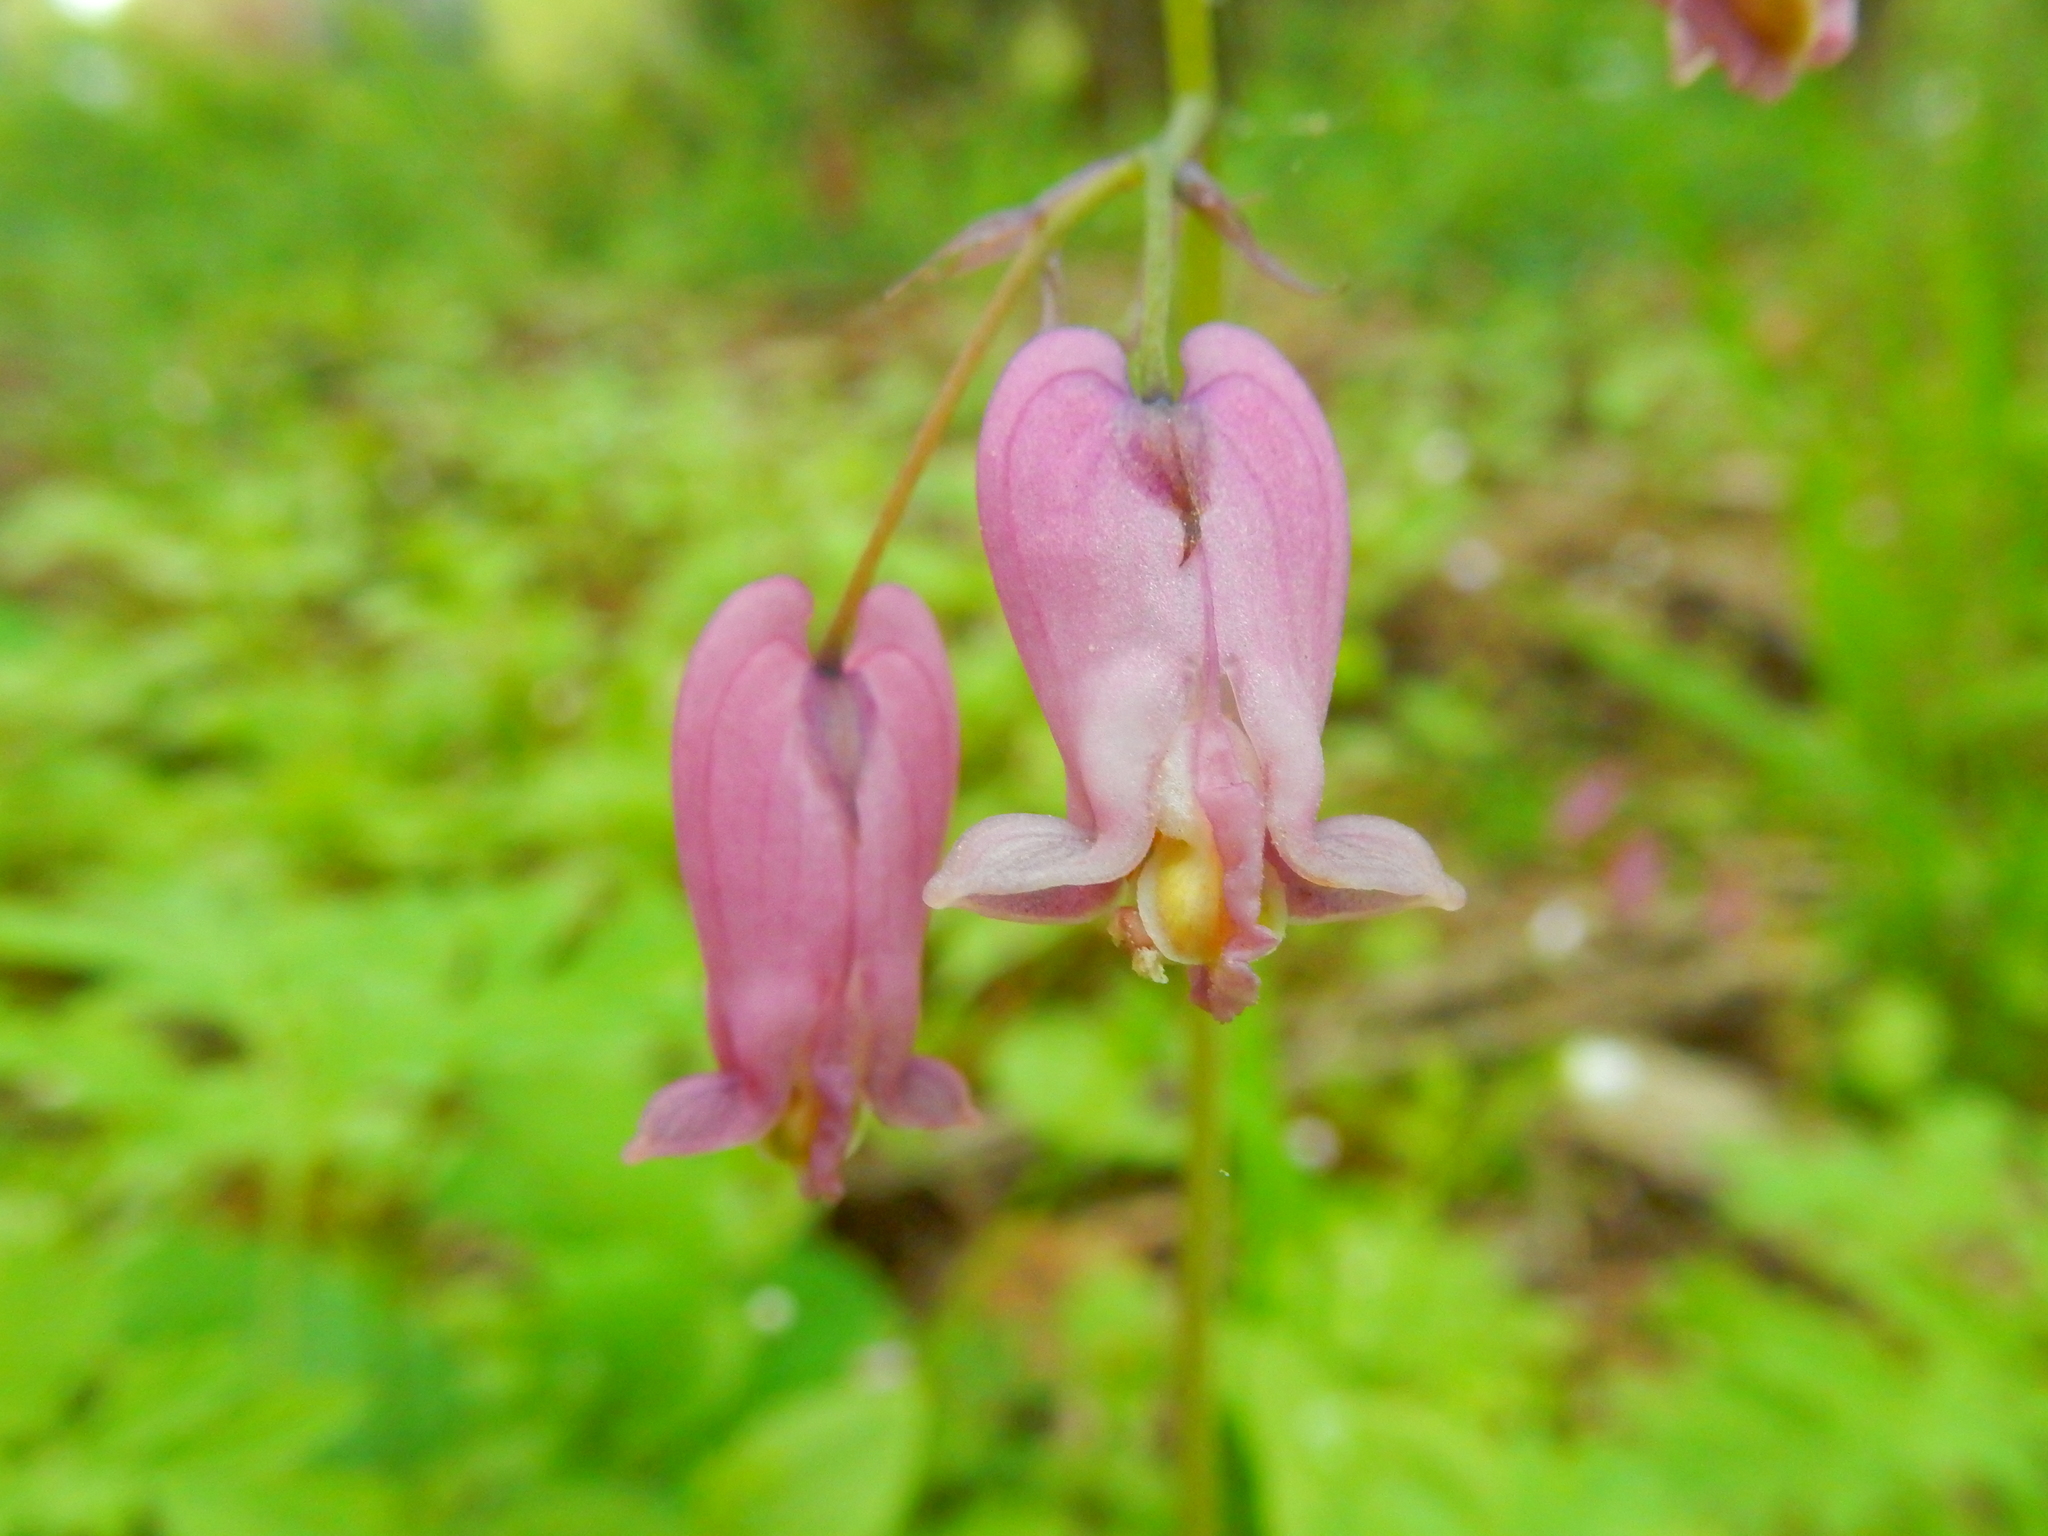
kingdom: Plantae
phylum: Tracheophyta
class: Magnoliopsida
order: Ranunculales
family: Papaveraceae
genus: Dicentra
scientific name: Dicentra formosa
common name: Bleeding-heart
